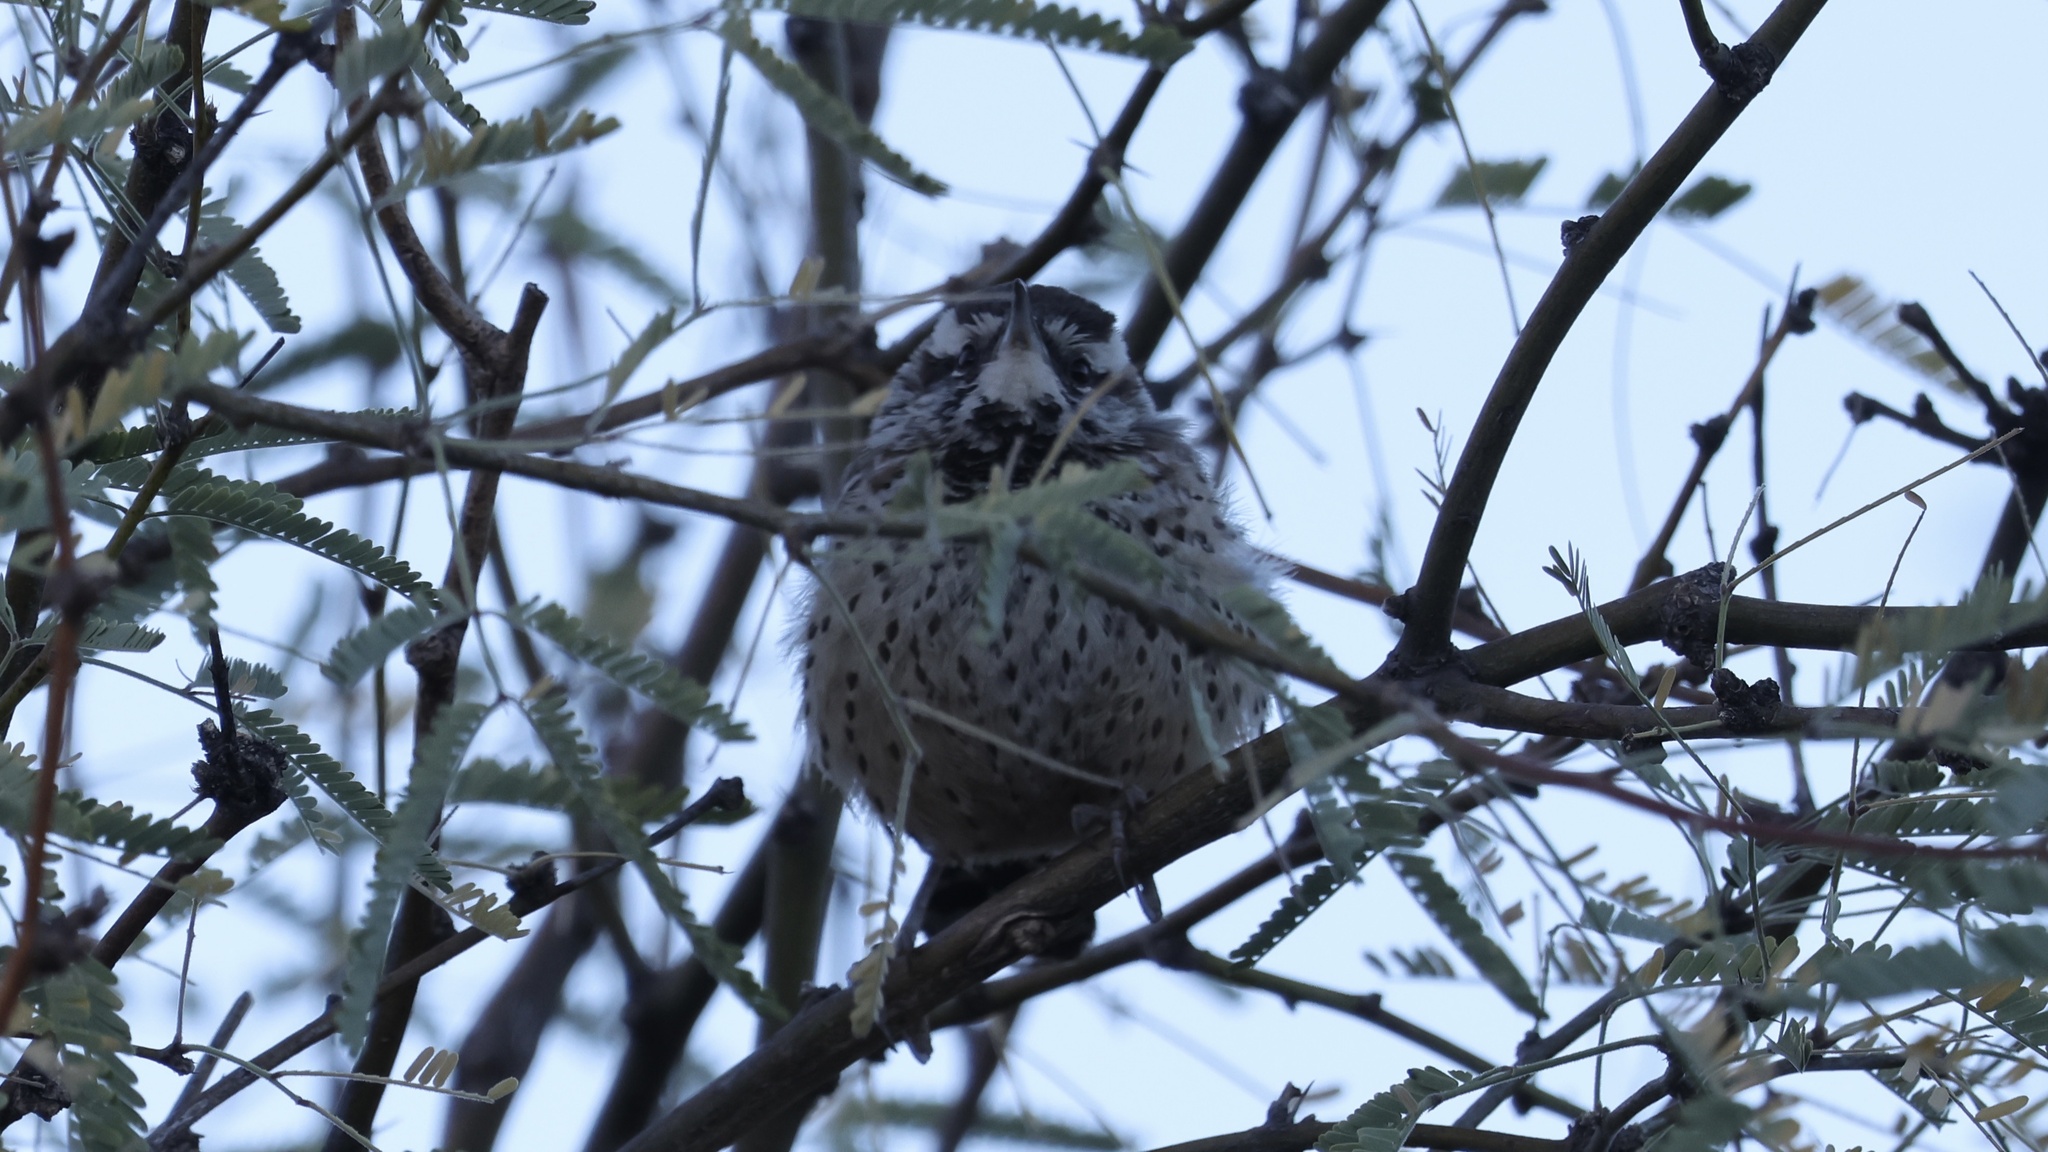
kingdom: Animalia
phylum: Chordata
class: Aves
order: Passeriformes
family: Troglodytidae
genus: Campylorhynchus
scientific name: Campylorhynchus brunneicapillus
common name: Cactus wren
